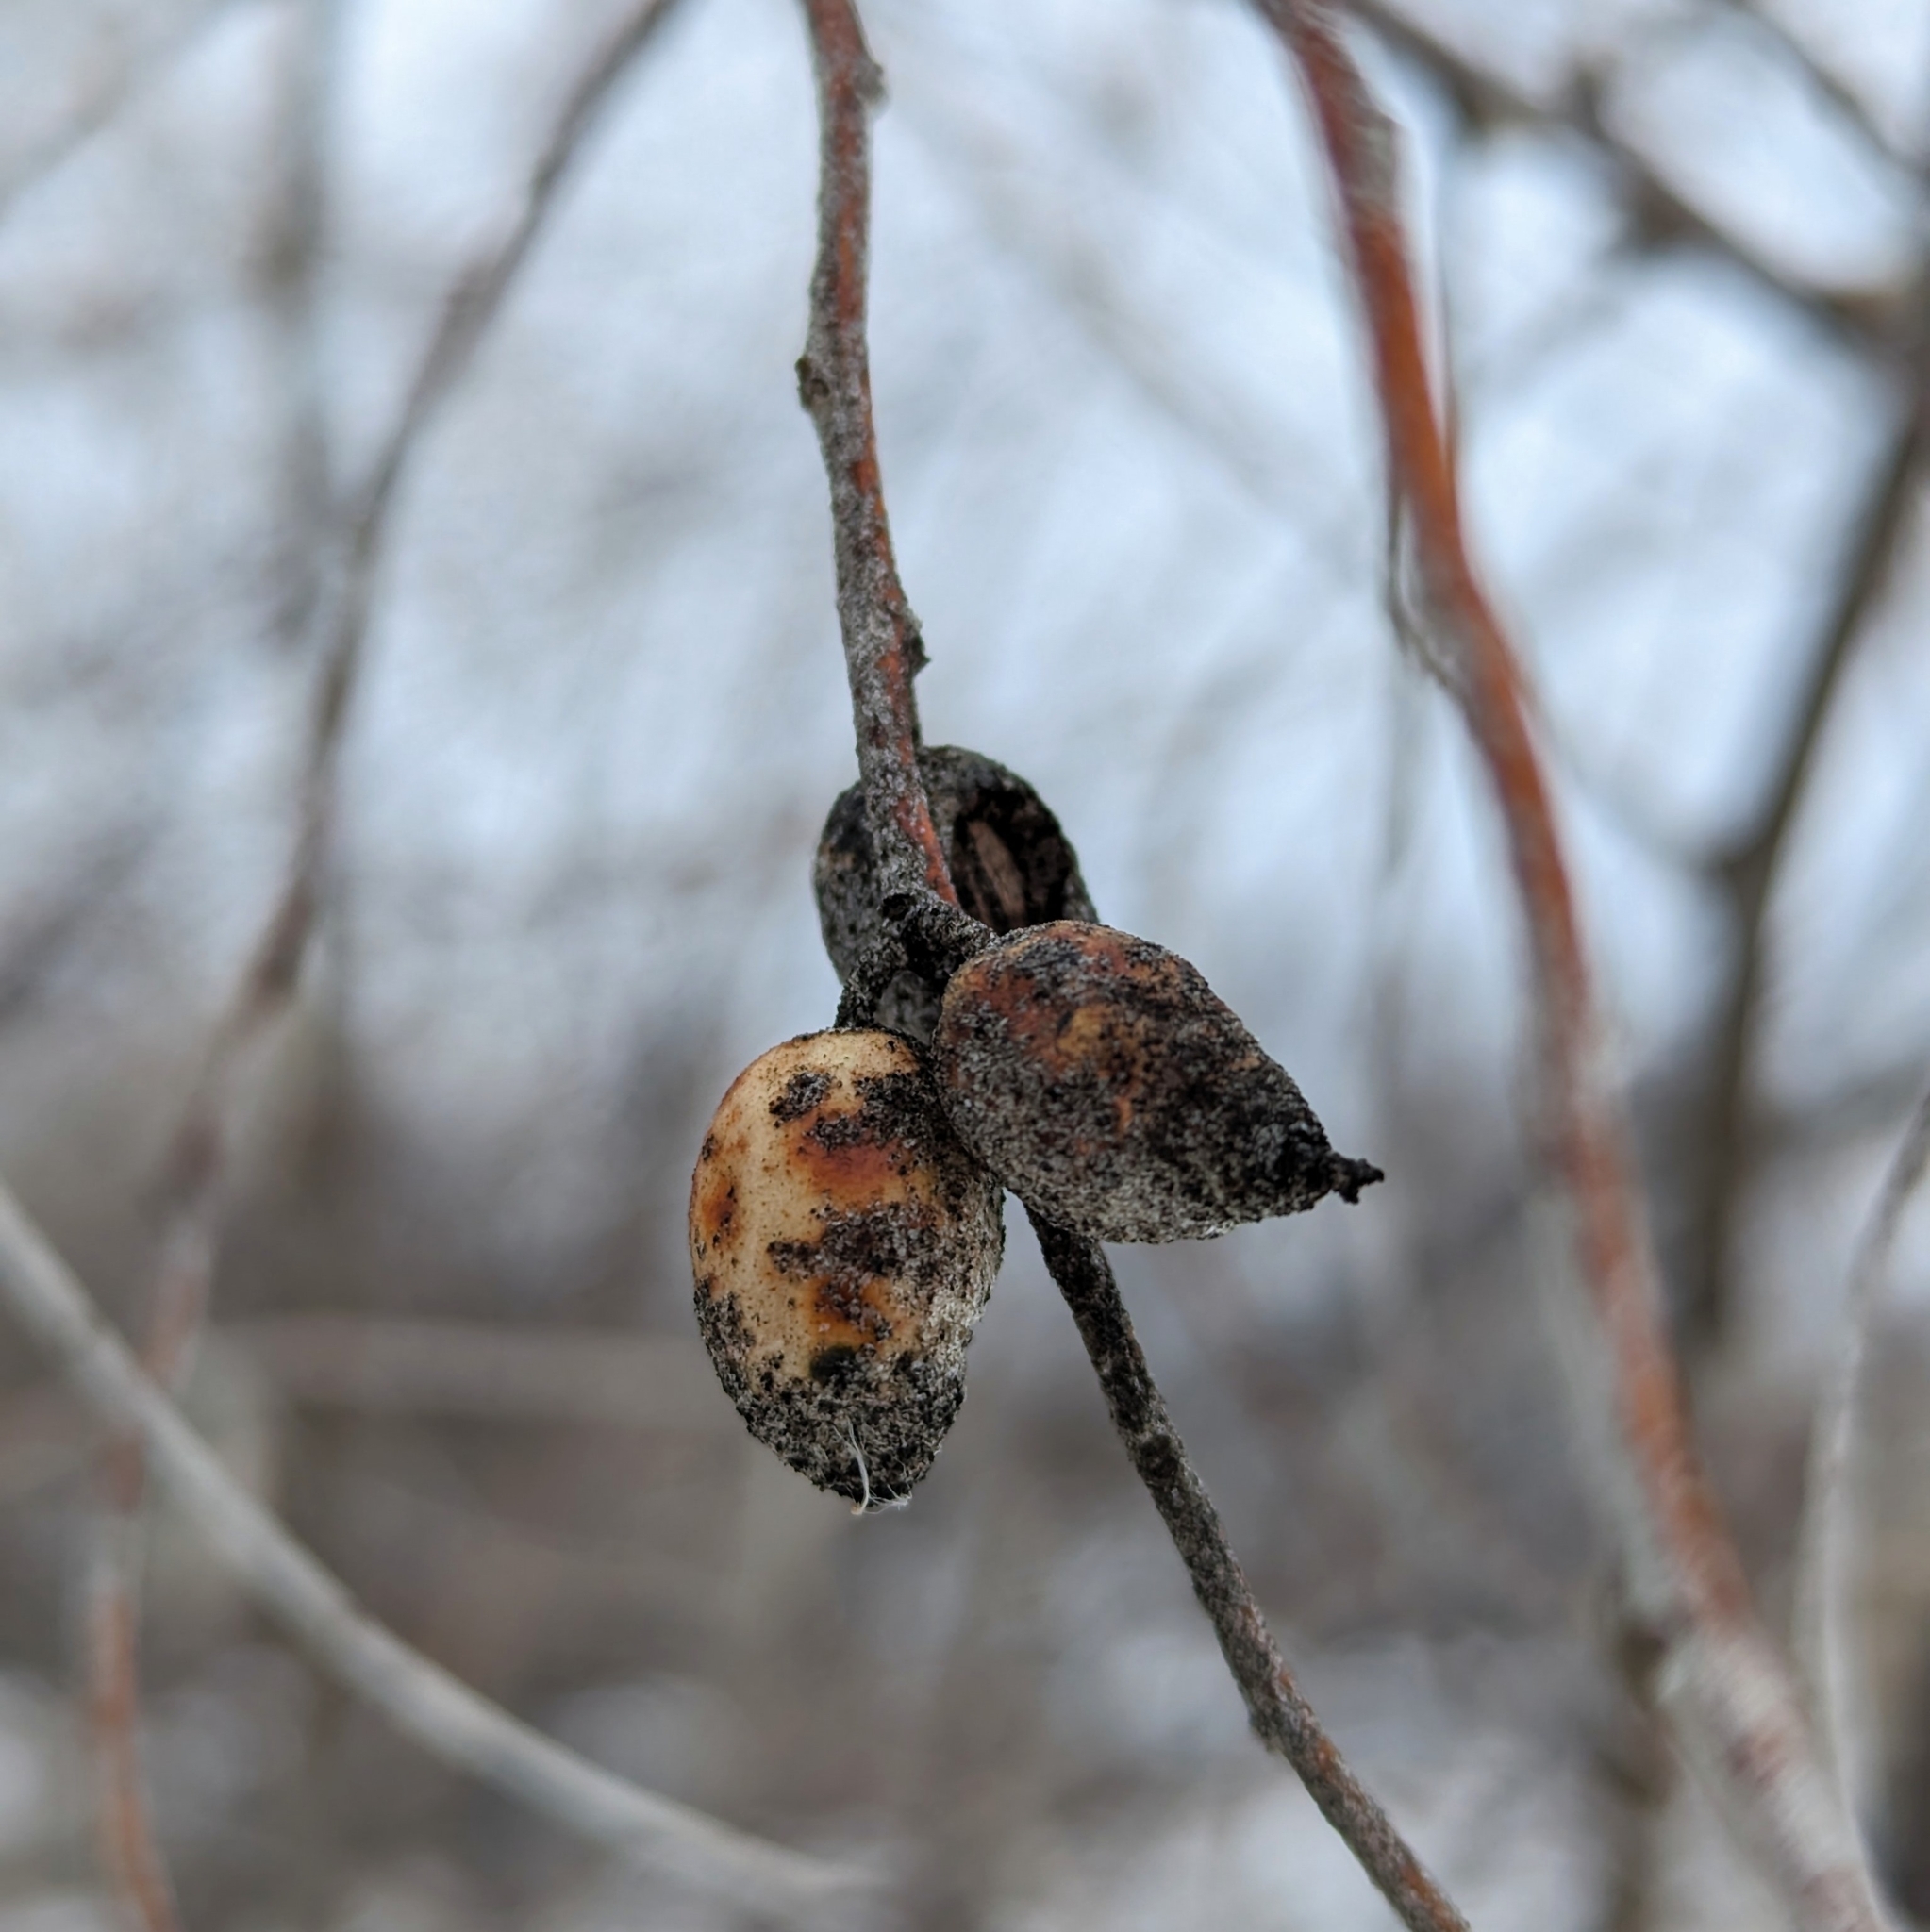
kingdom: Plantae
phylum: Tracheophyta
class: Magnoliopsida
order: Rosales
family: Elaeagnaceae
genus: Elaeagnus
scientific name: Elaeagnus angustifolia
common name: Russian olive
